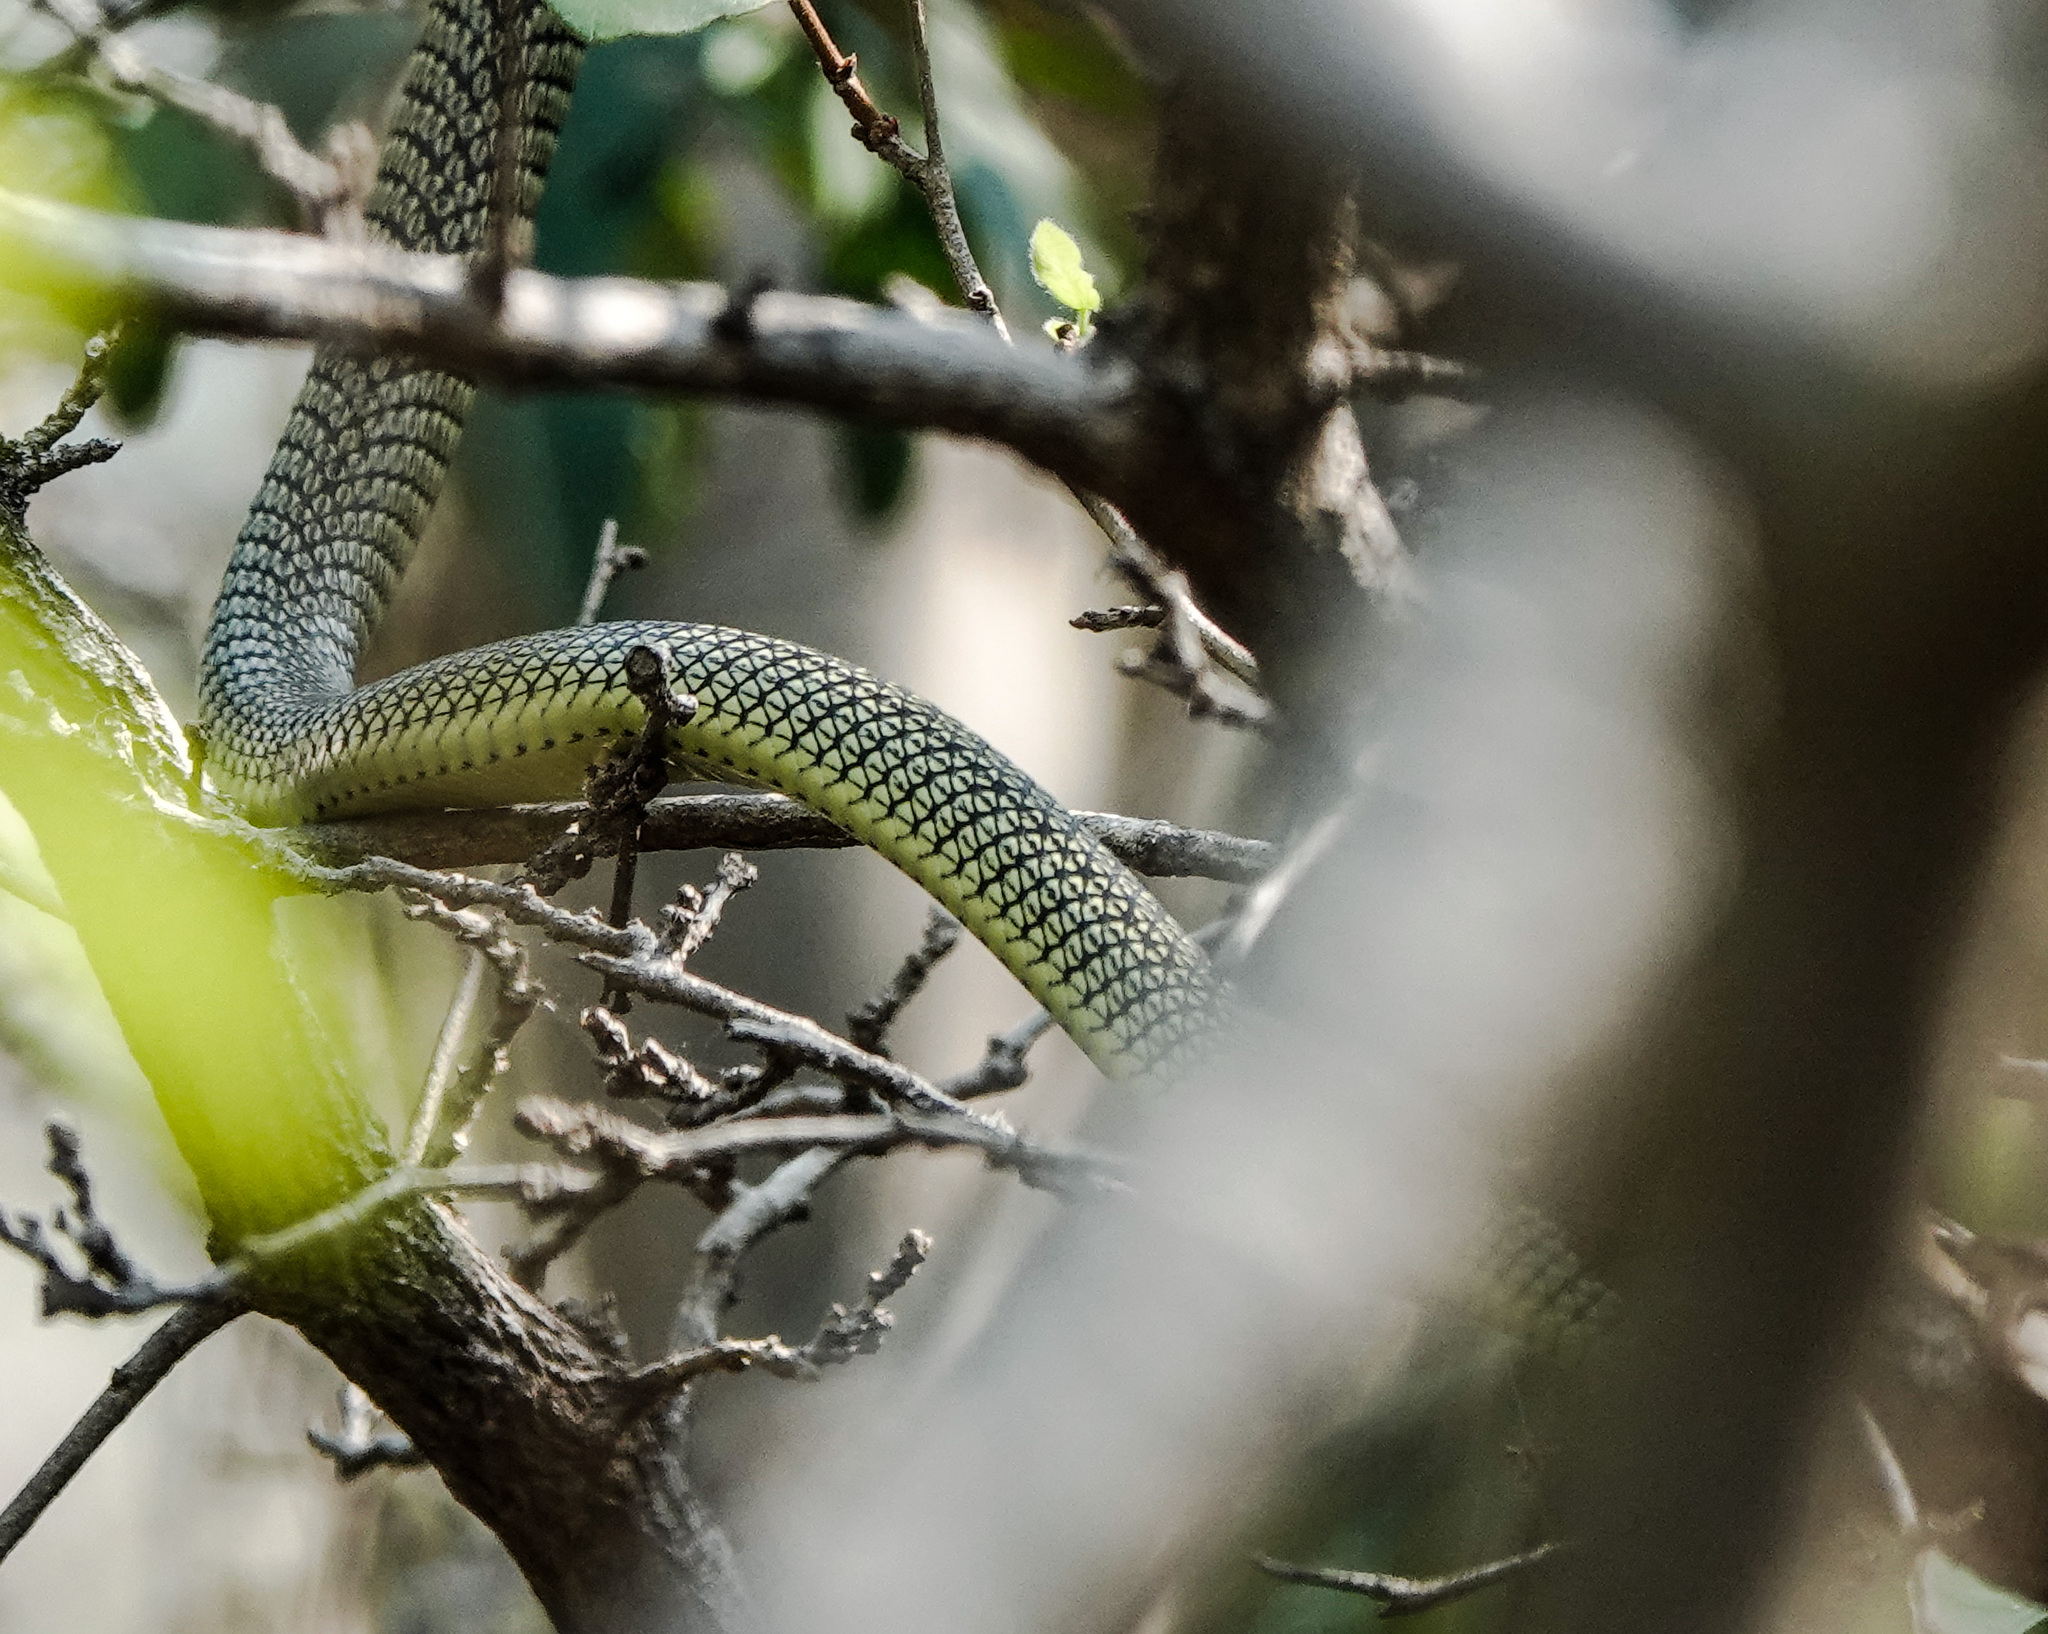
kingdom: Animalia
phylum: Chordata
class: Squamata
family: Colubridae
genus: Chrysopelea
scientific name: Chrysopelea ornata
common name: Golden flying snake
